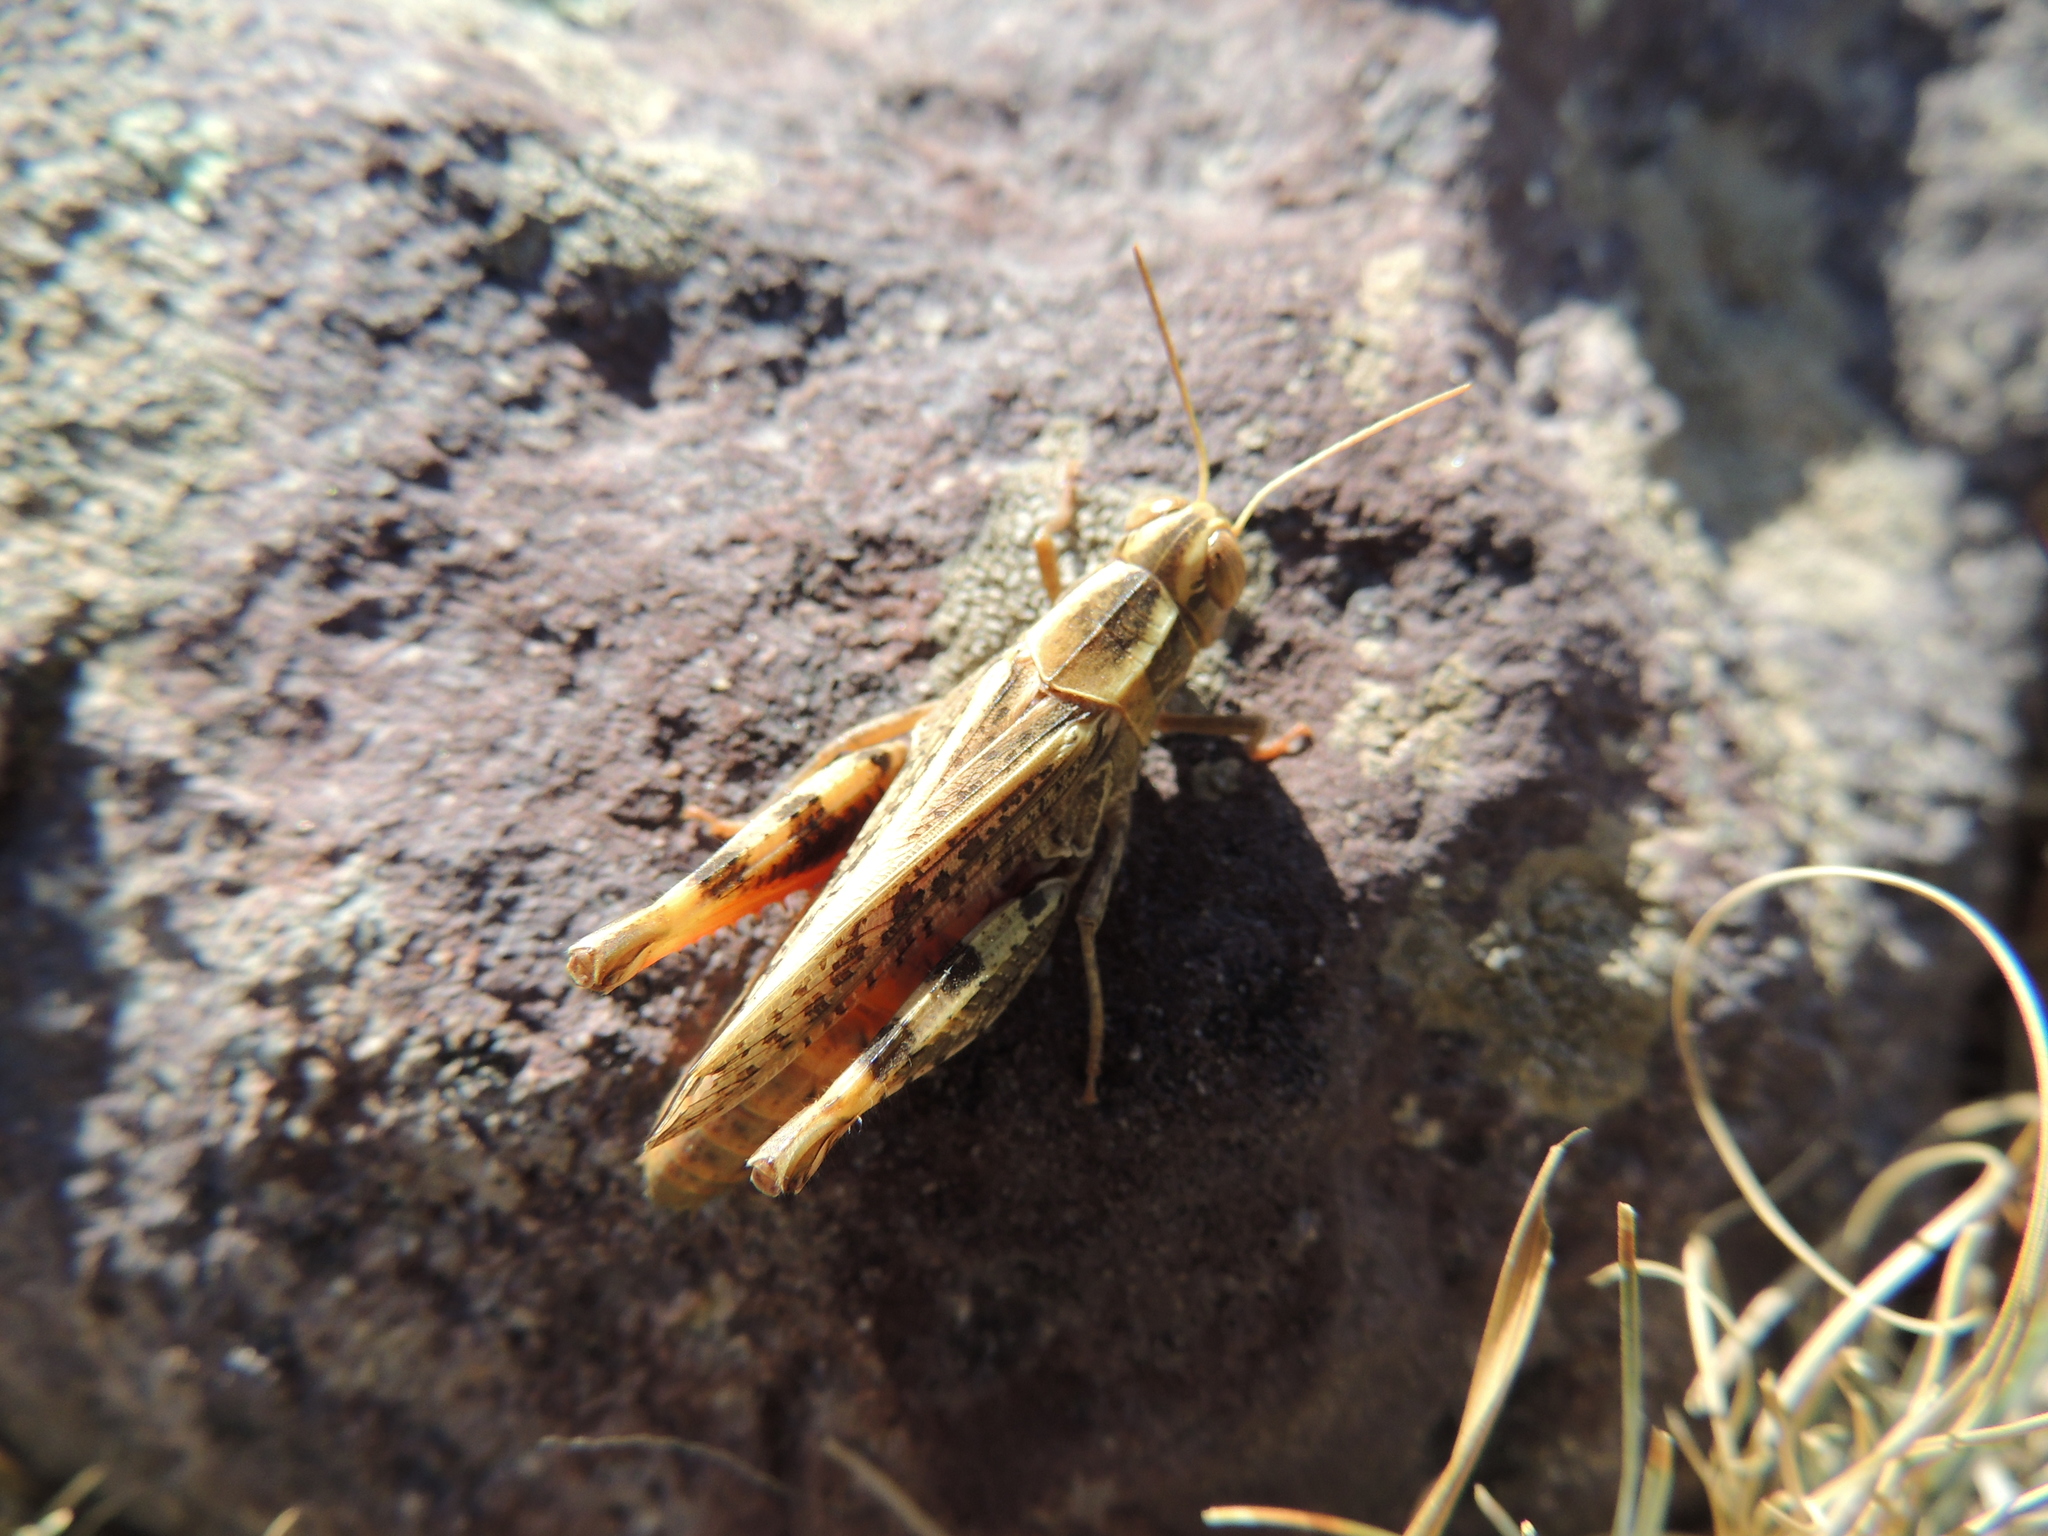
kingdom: Animalia
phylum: Arthropoda
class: Insecta
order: Orthoptera
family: Acrididae
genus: Calliptamus
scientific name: Calliptamus barbarus
